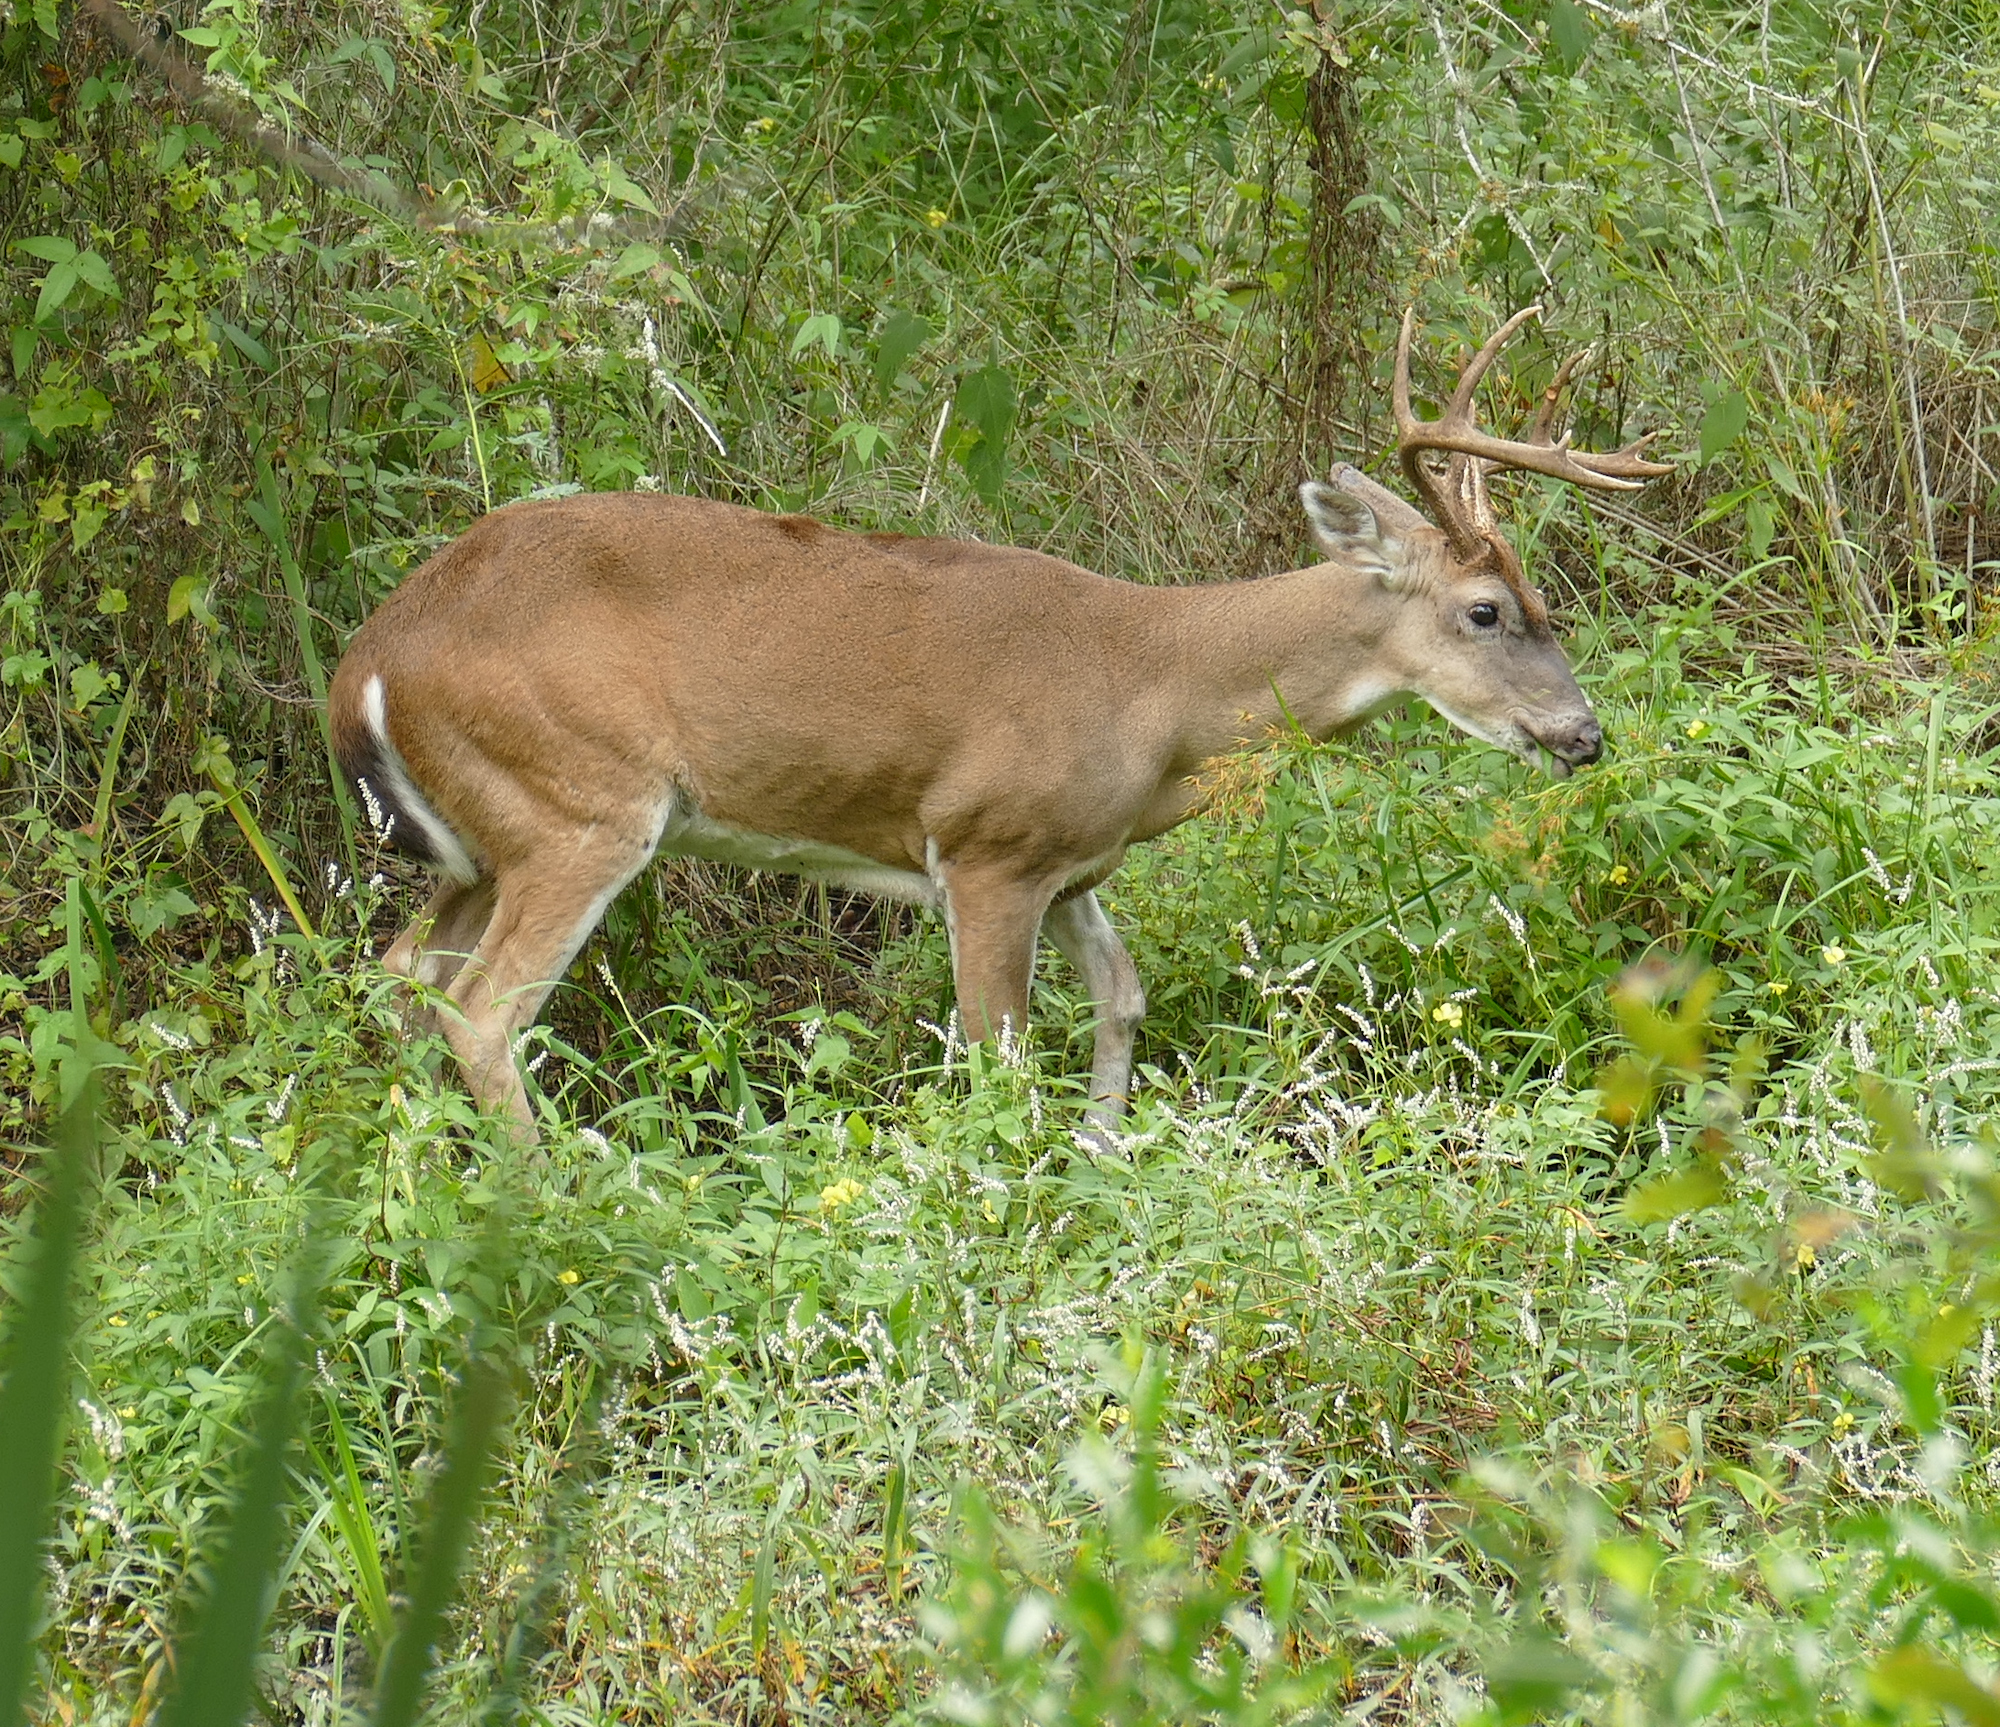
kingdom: Animalia
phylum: Chordata
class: Mammalia
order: Artiodactyla
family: Cervidae
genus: Odocoileus
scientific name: Odocoileus virginianus
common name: White-tailed deer
